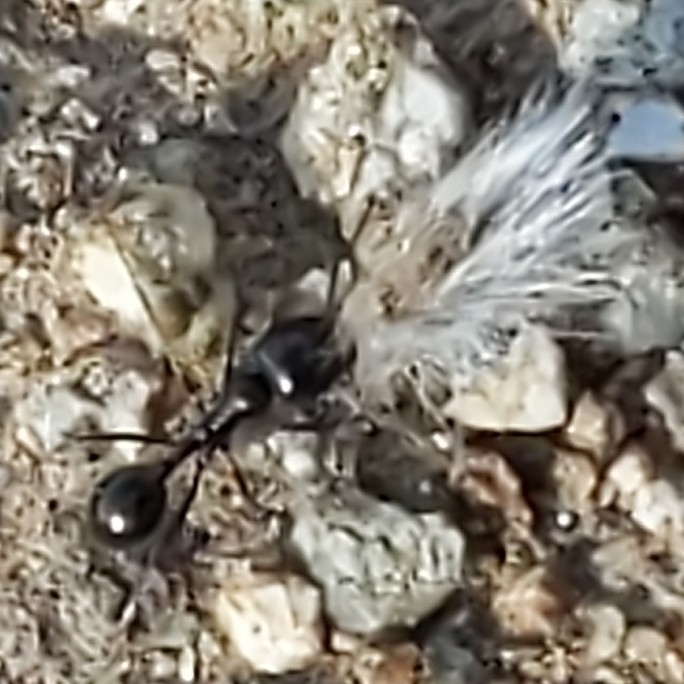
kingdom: Plantae
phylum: Tracheophyta
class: Magnoliopsida
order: Zygophyllales
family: Zygophyllaceae
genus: Larrea
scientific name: Larrea tridentata
